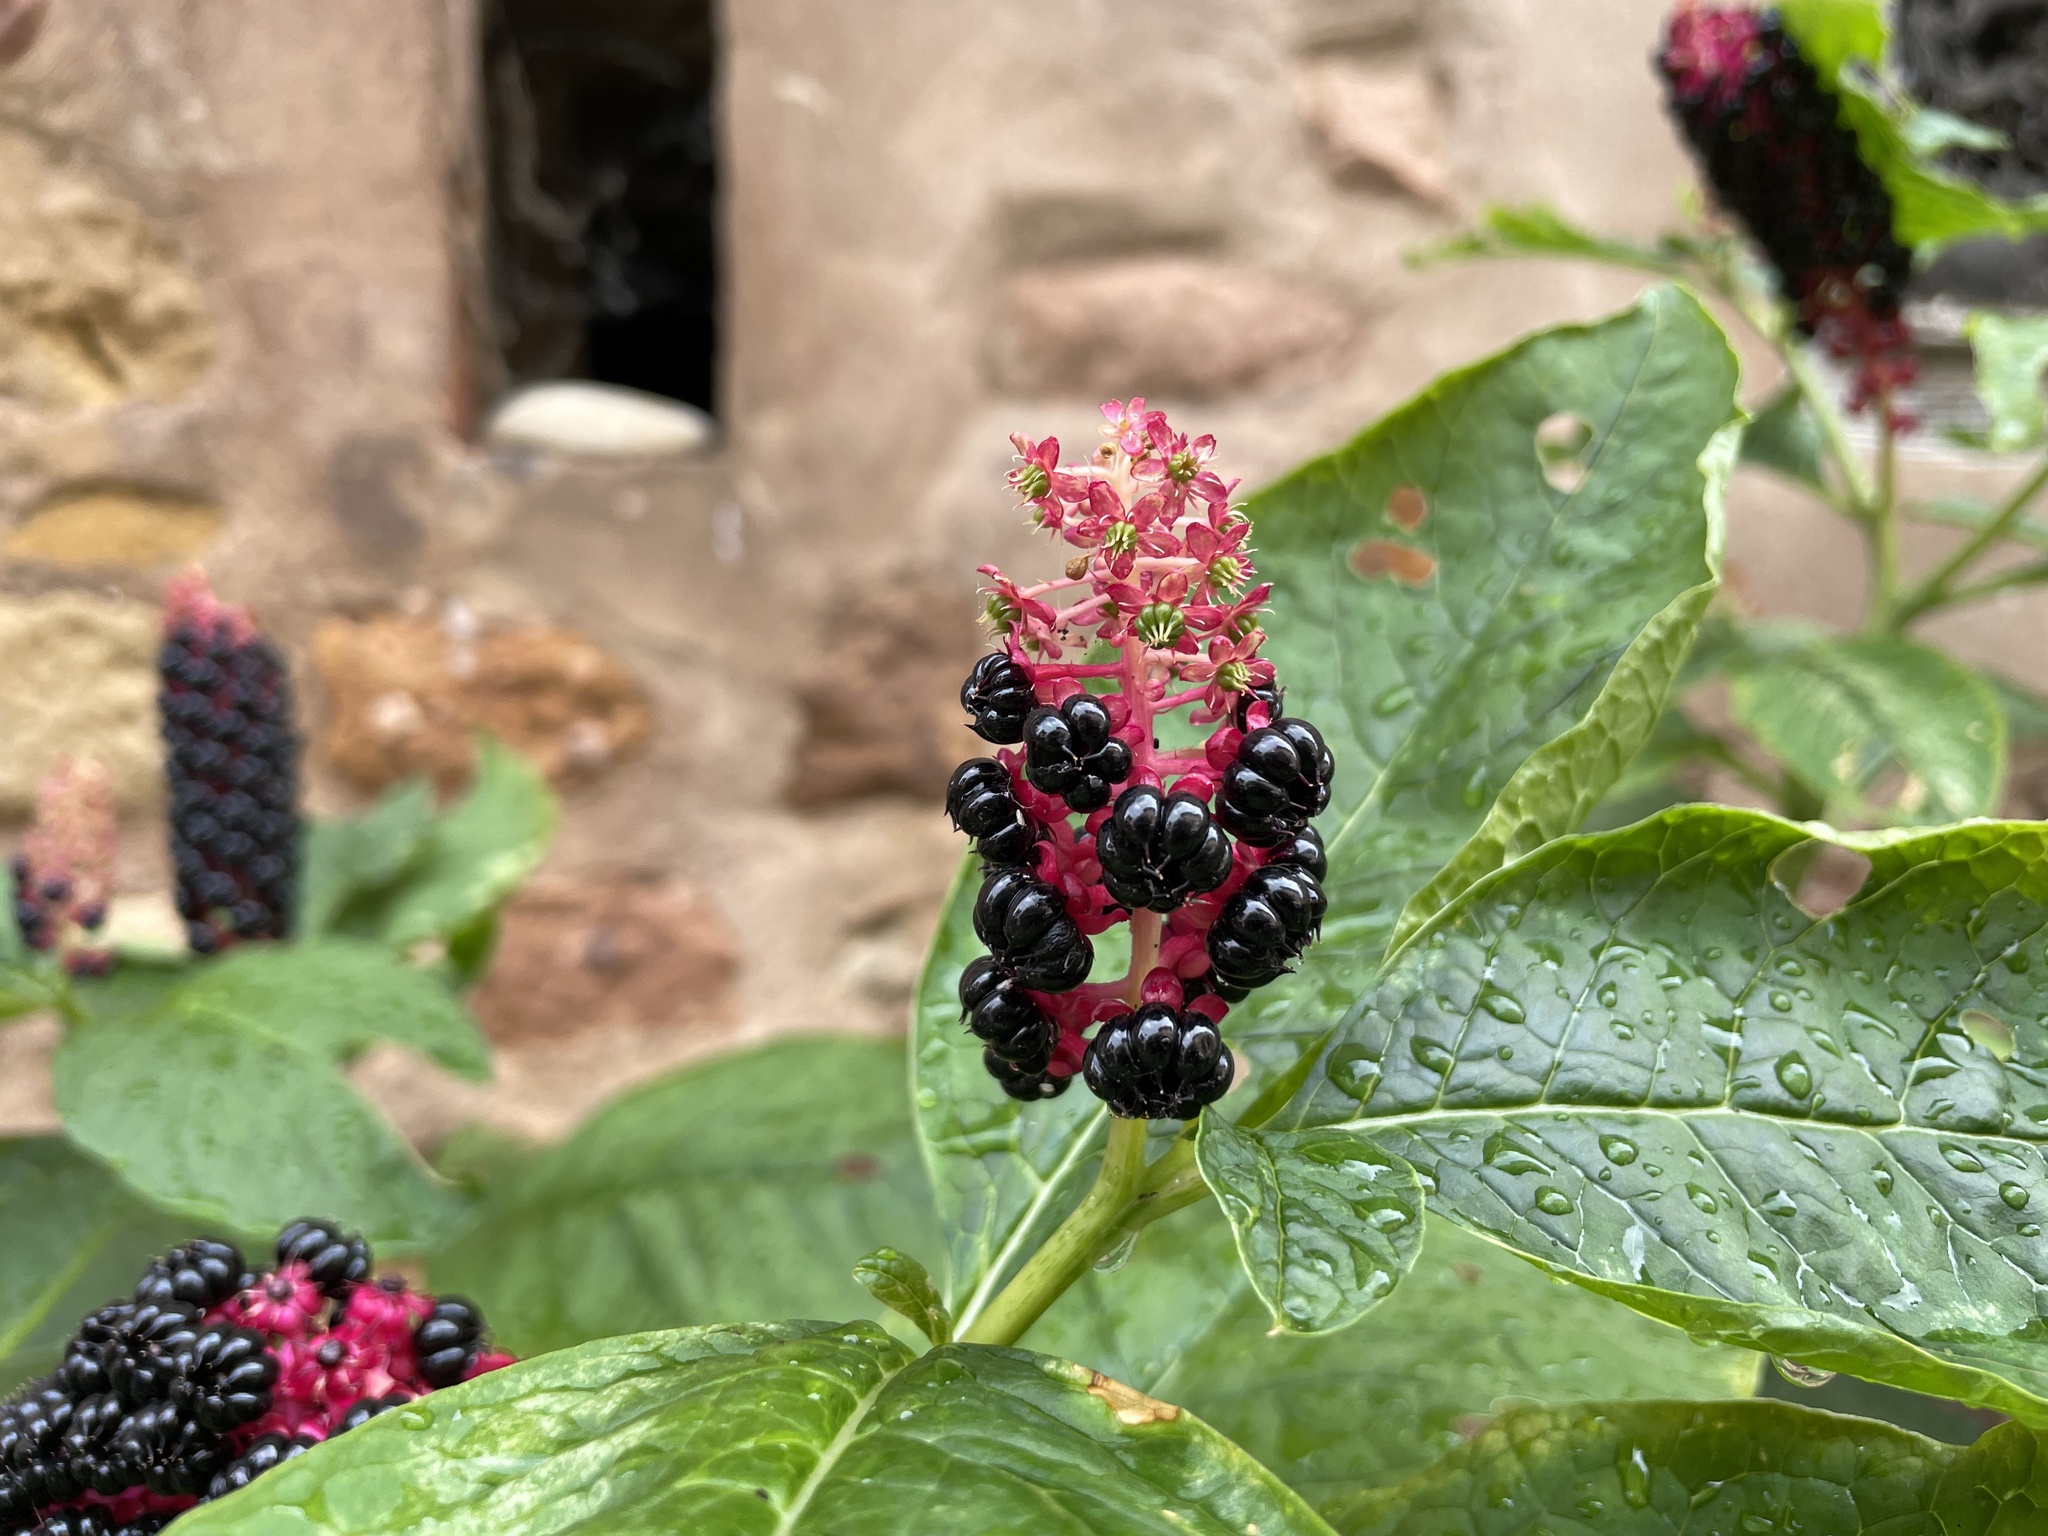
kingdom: Plantae
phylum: Tracheophyta
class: Magnoliopsida
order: Caryophyllales
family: Phytolaccaceae
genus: Phytolacca
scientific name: Phytolacca acinosa
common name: Indian pokeweed
